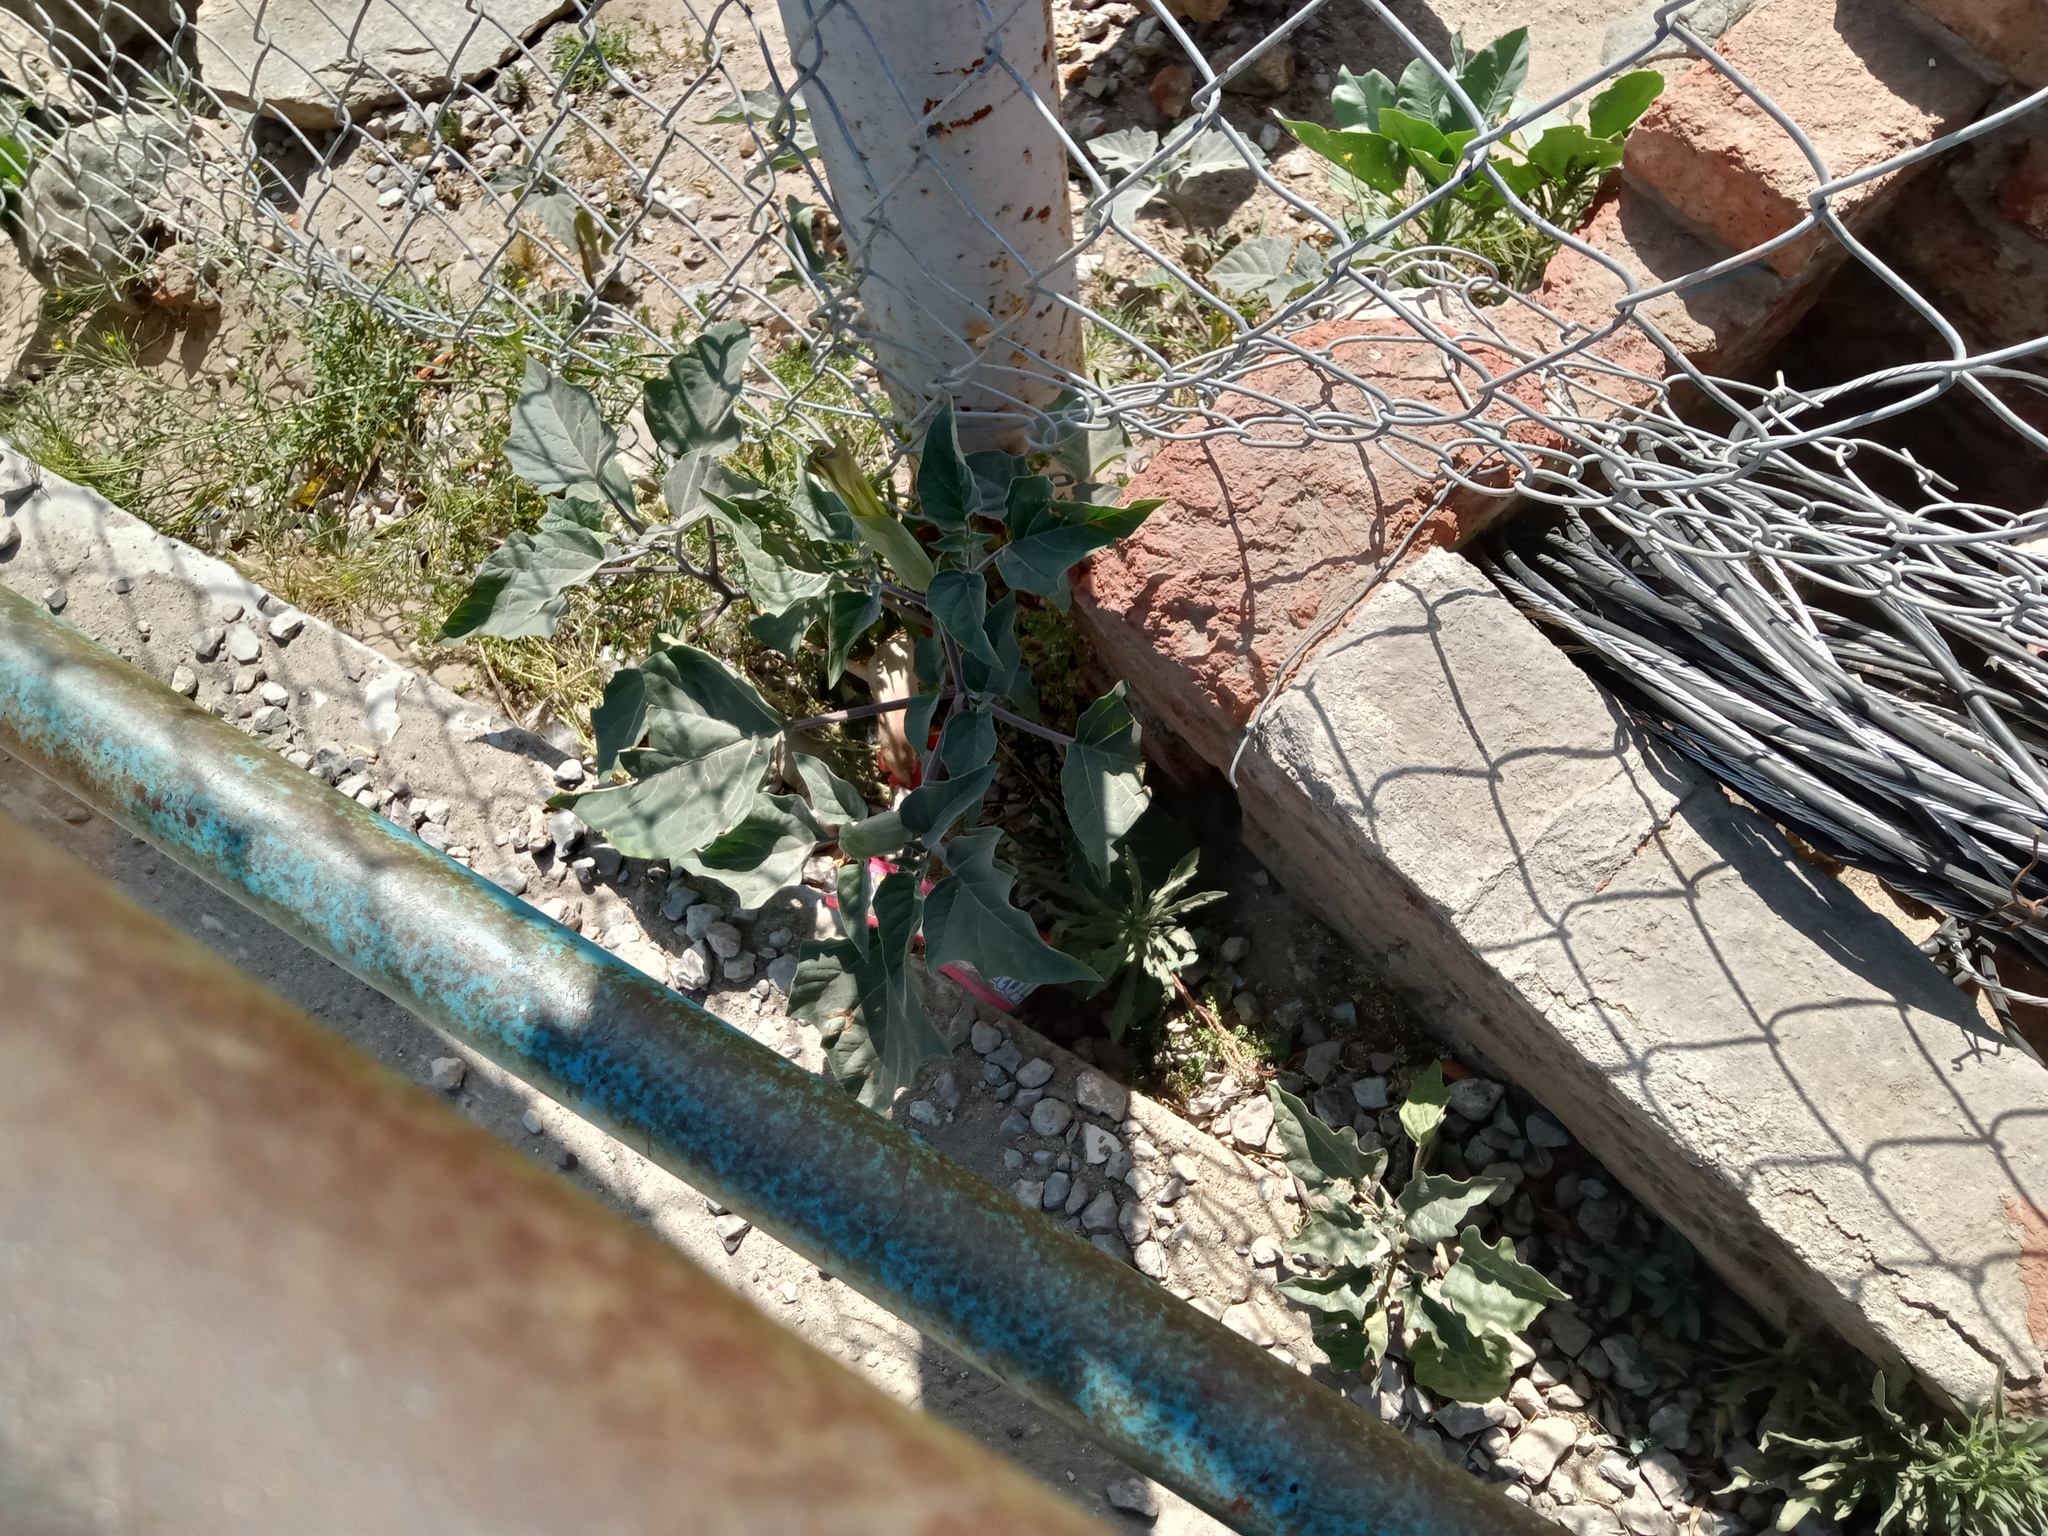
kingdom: Plantae
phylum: Tracheophyta
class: Magnoliopsida
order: Solanales
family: Solanaceae
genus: Datura
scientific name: Datura wrightii
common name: Sacred thorn-apple
